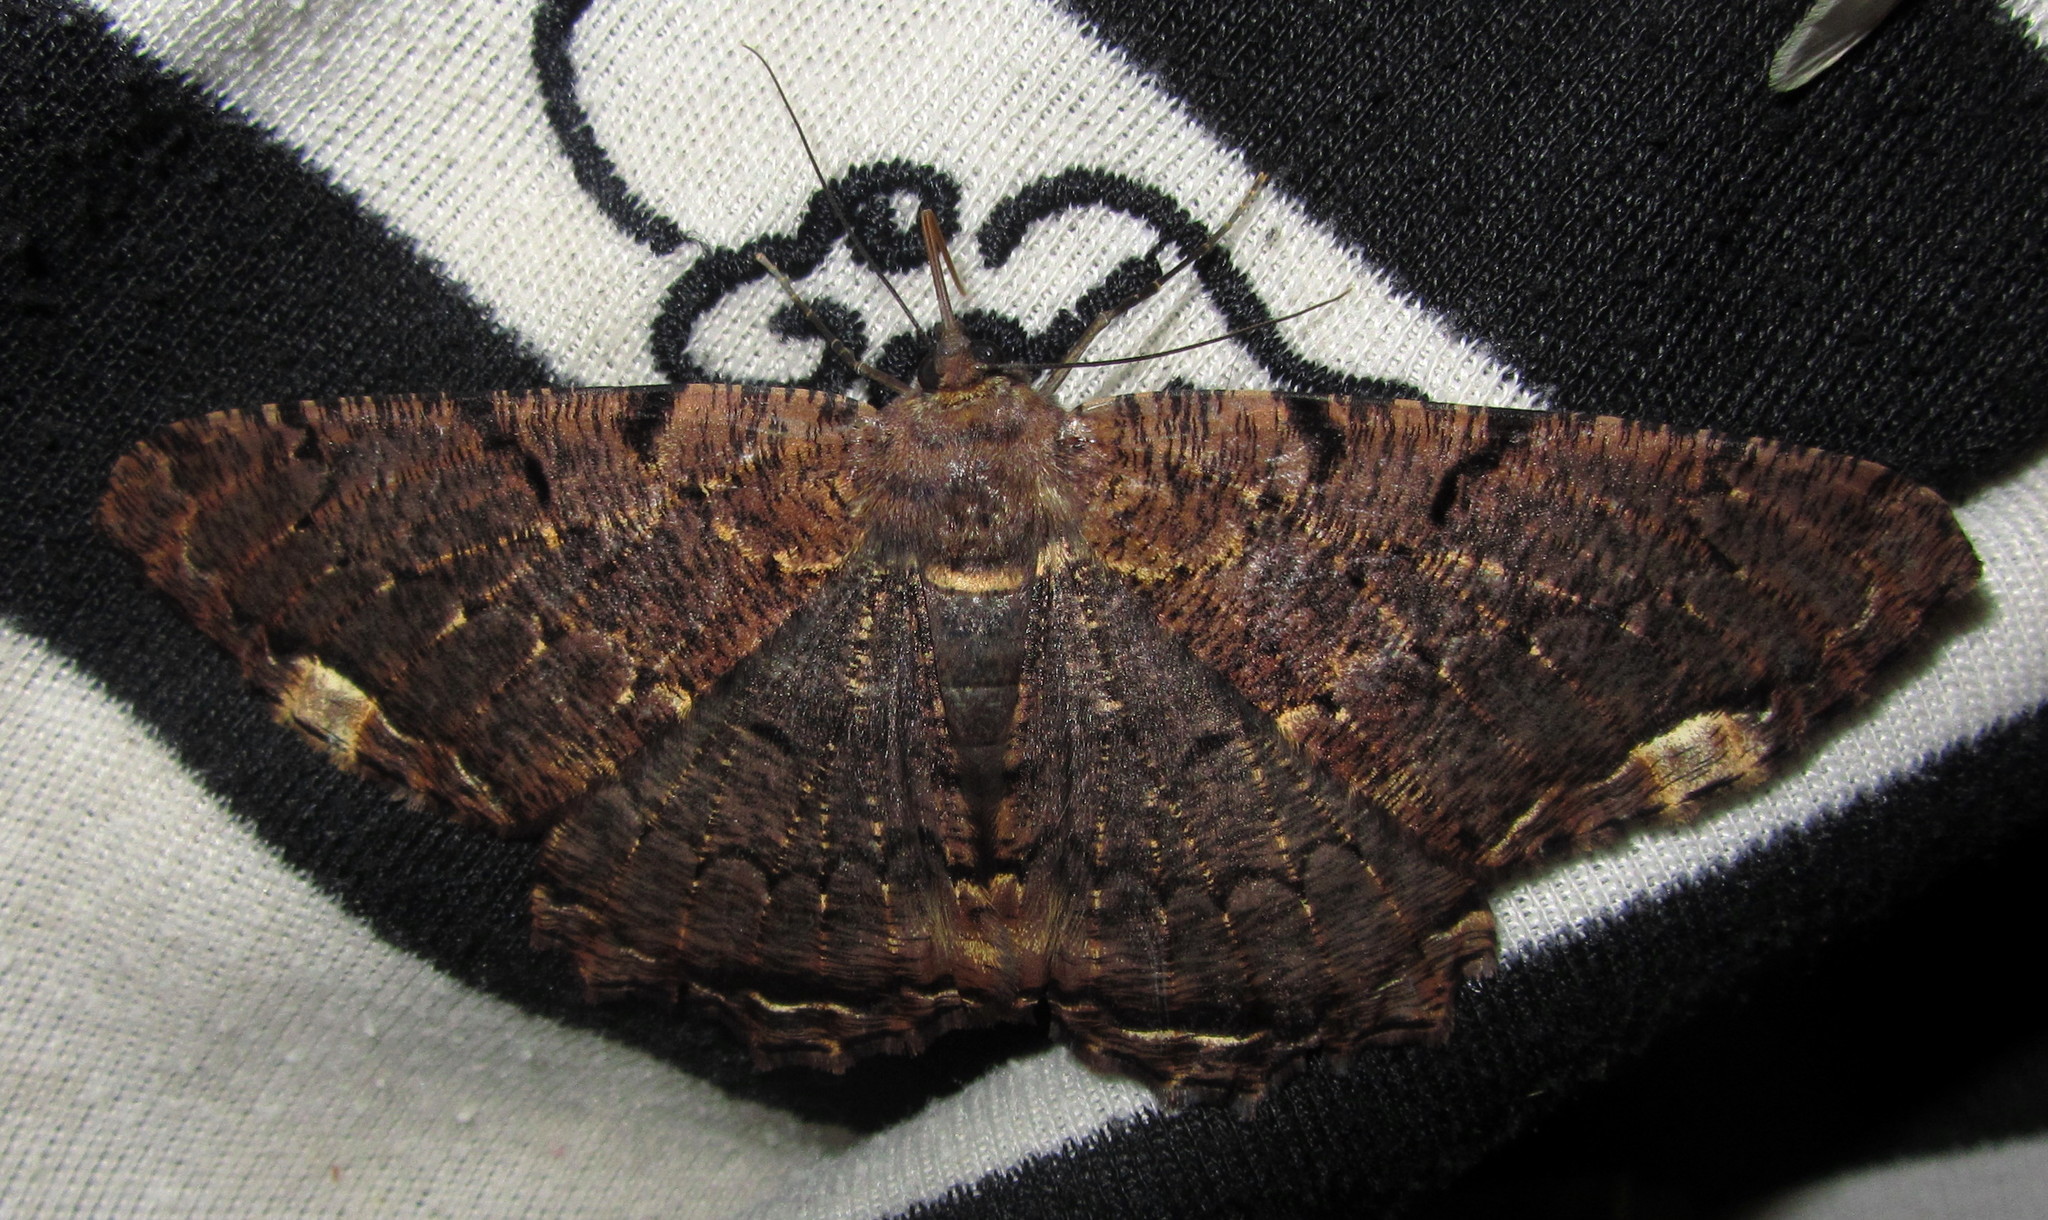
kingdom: Animalia
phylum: Arthropoda
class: Insecta
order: Lepidoptera
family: Geometridae
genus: Chorodna
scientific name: Chorodna mauraria
